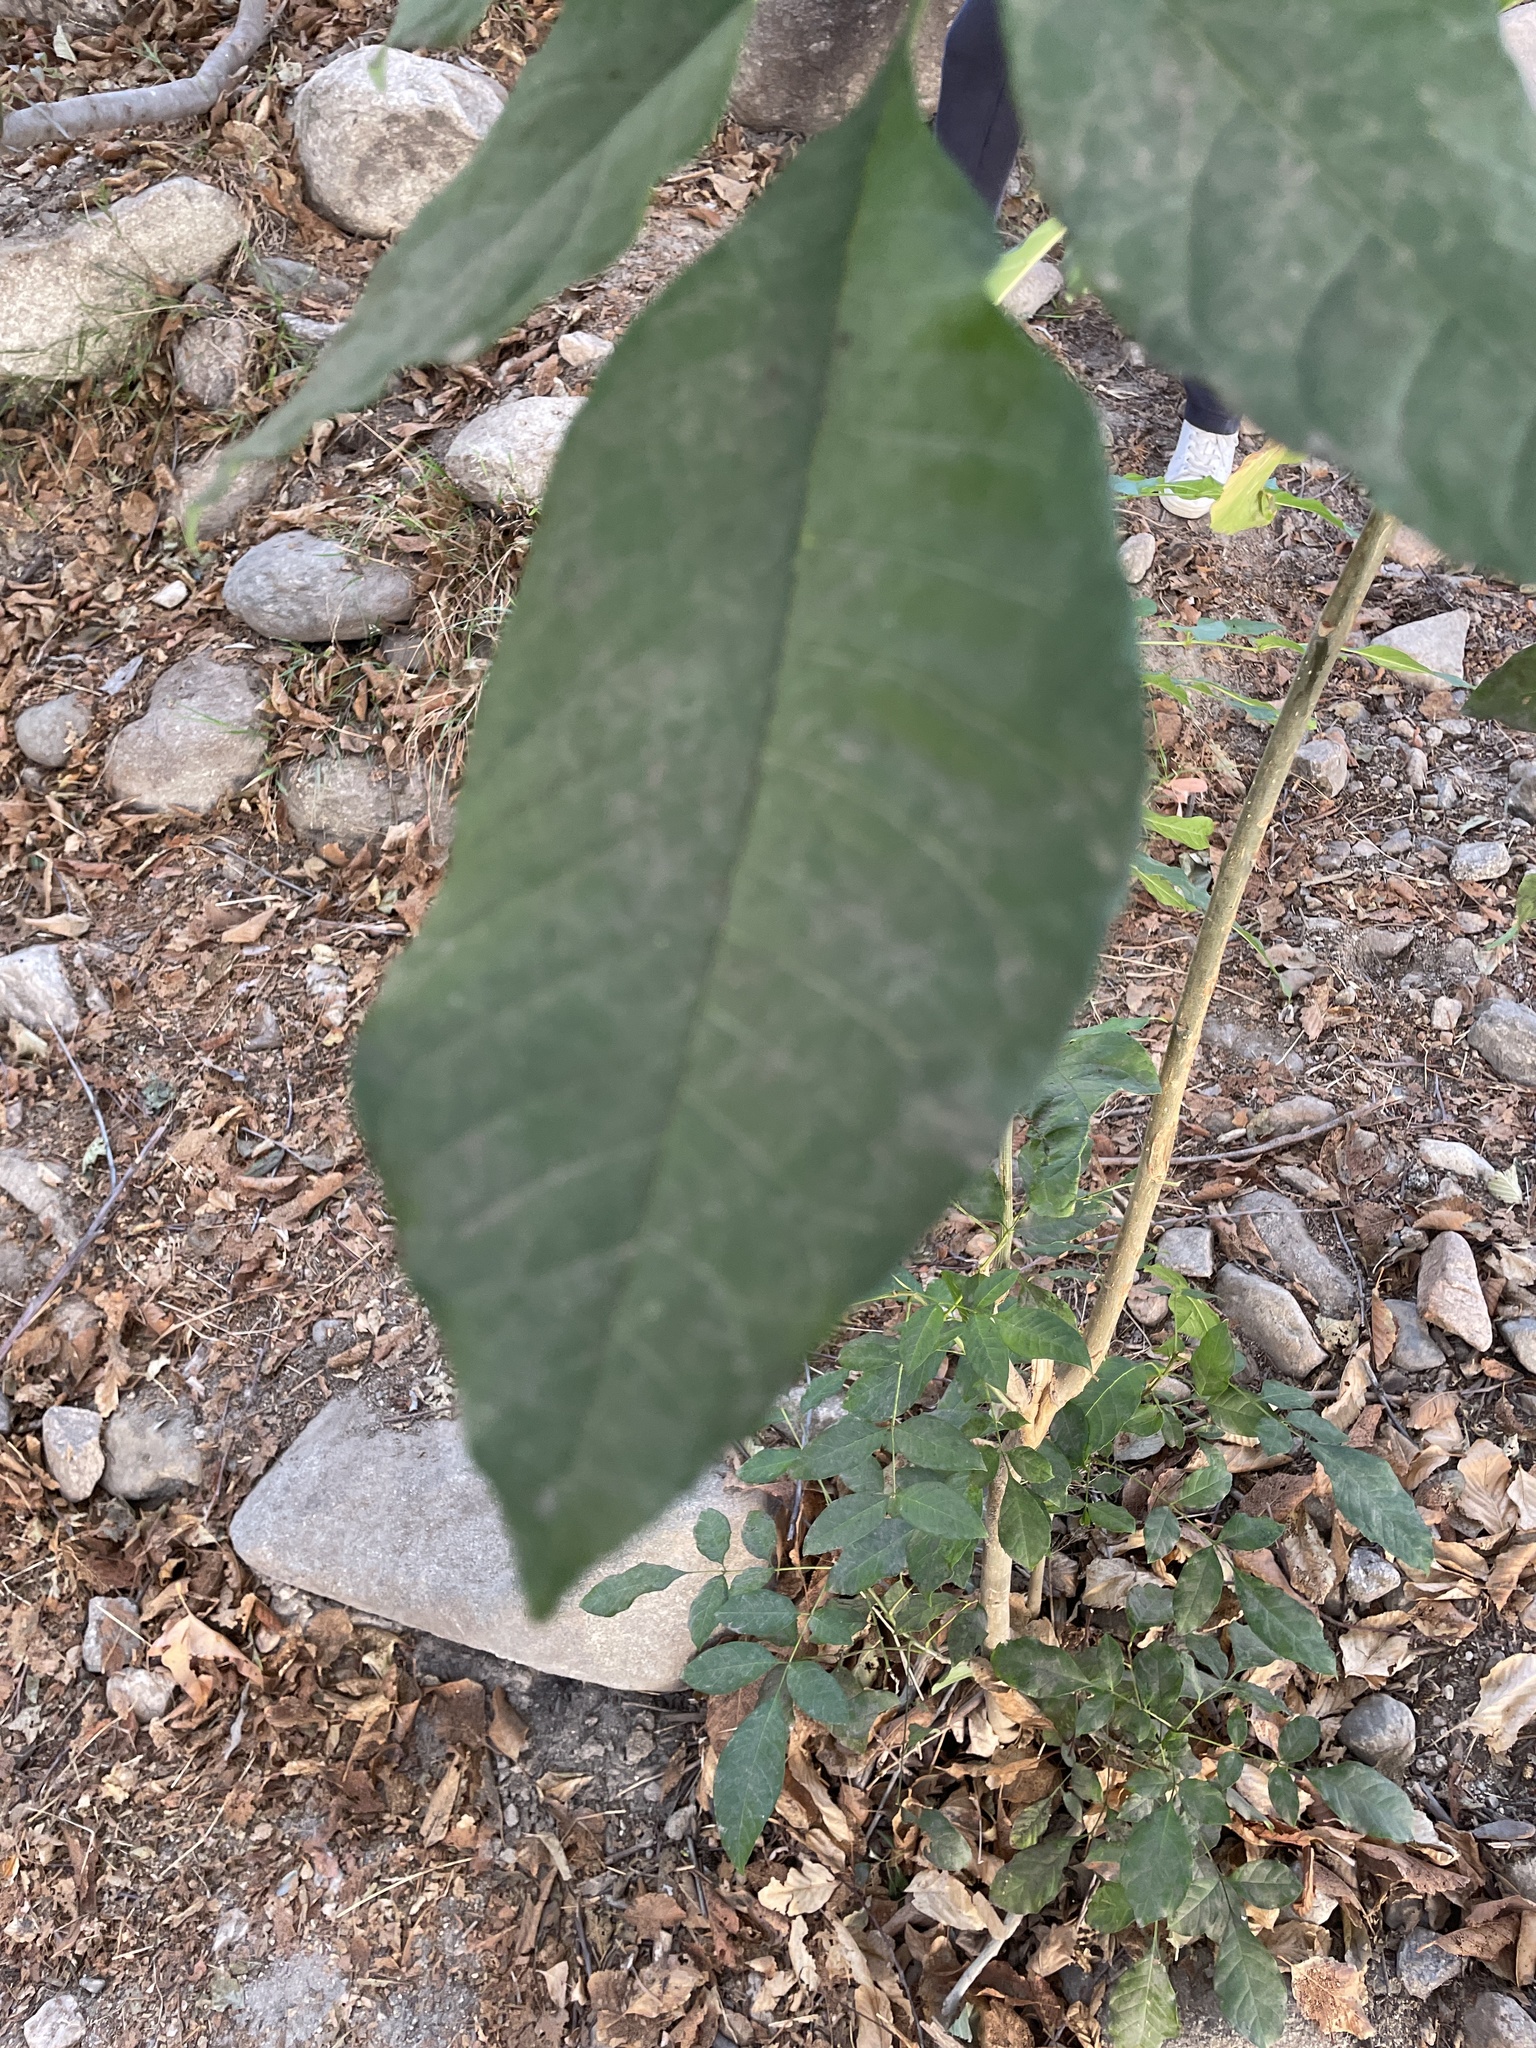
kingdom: Plantae
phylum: Tracheophyta
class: Magnoliopsida
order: Lamiales
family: Oleaceae
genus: Fraxinus
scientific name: Fraxinus uhdei
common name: Shamel ash
